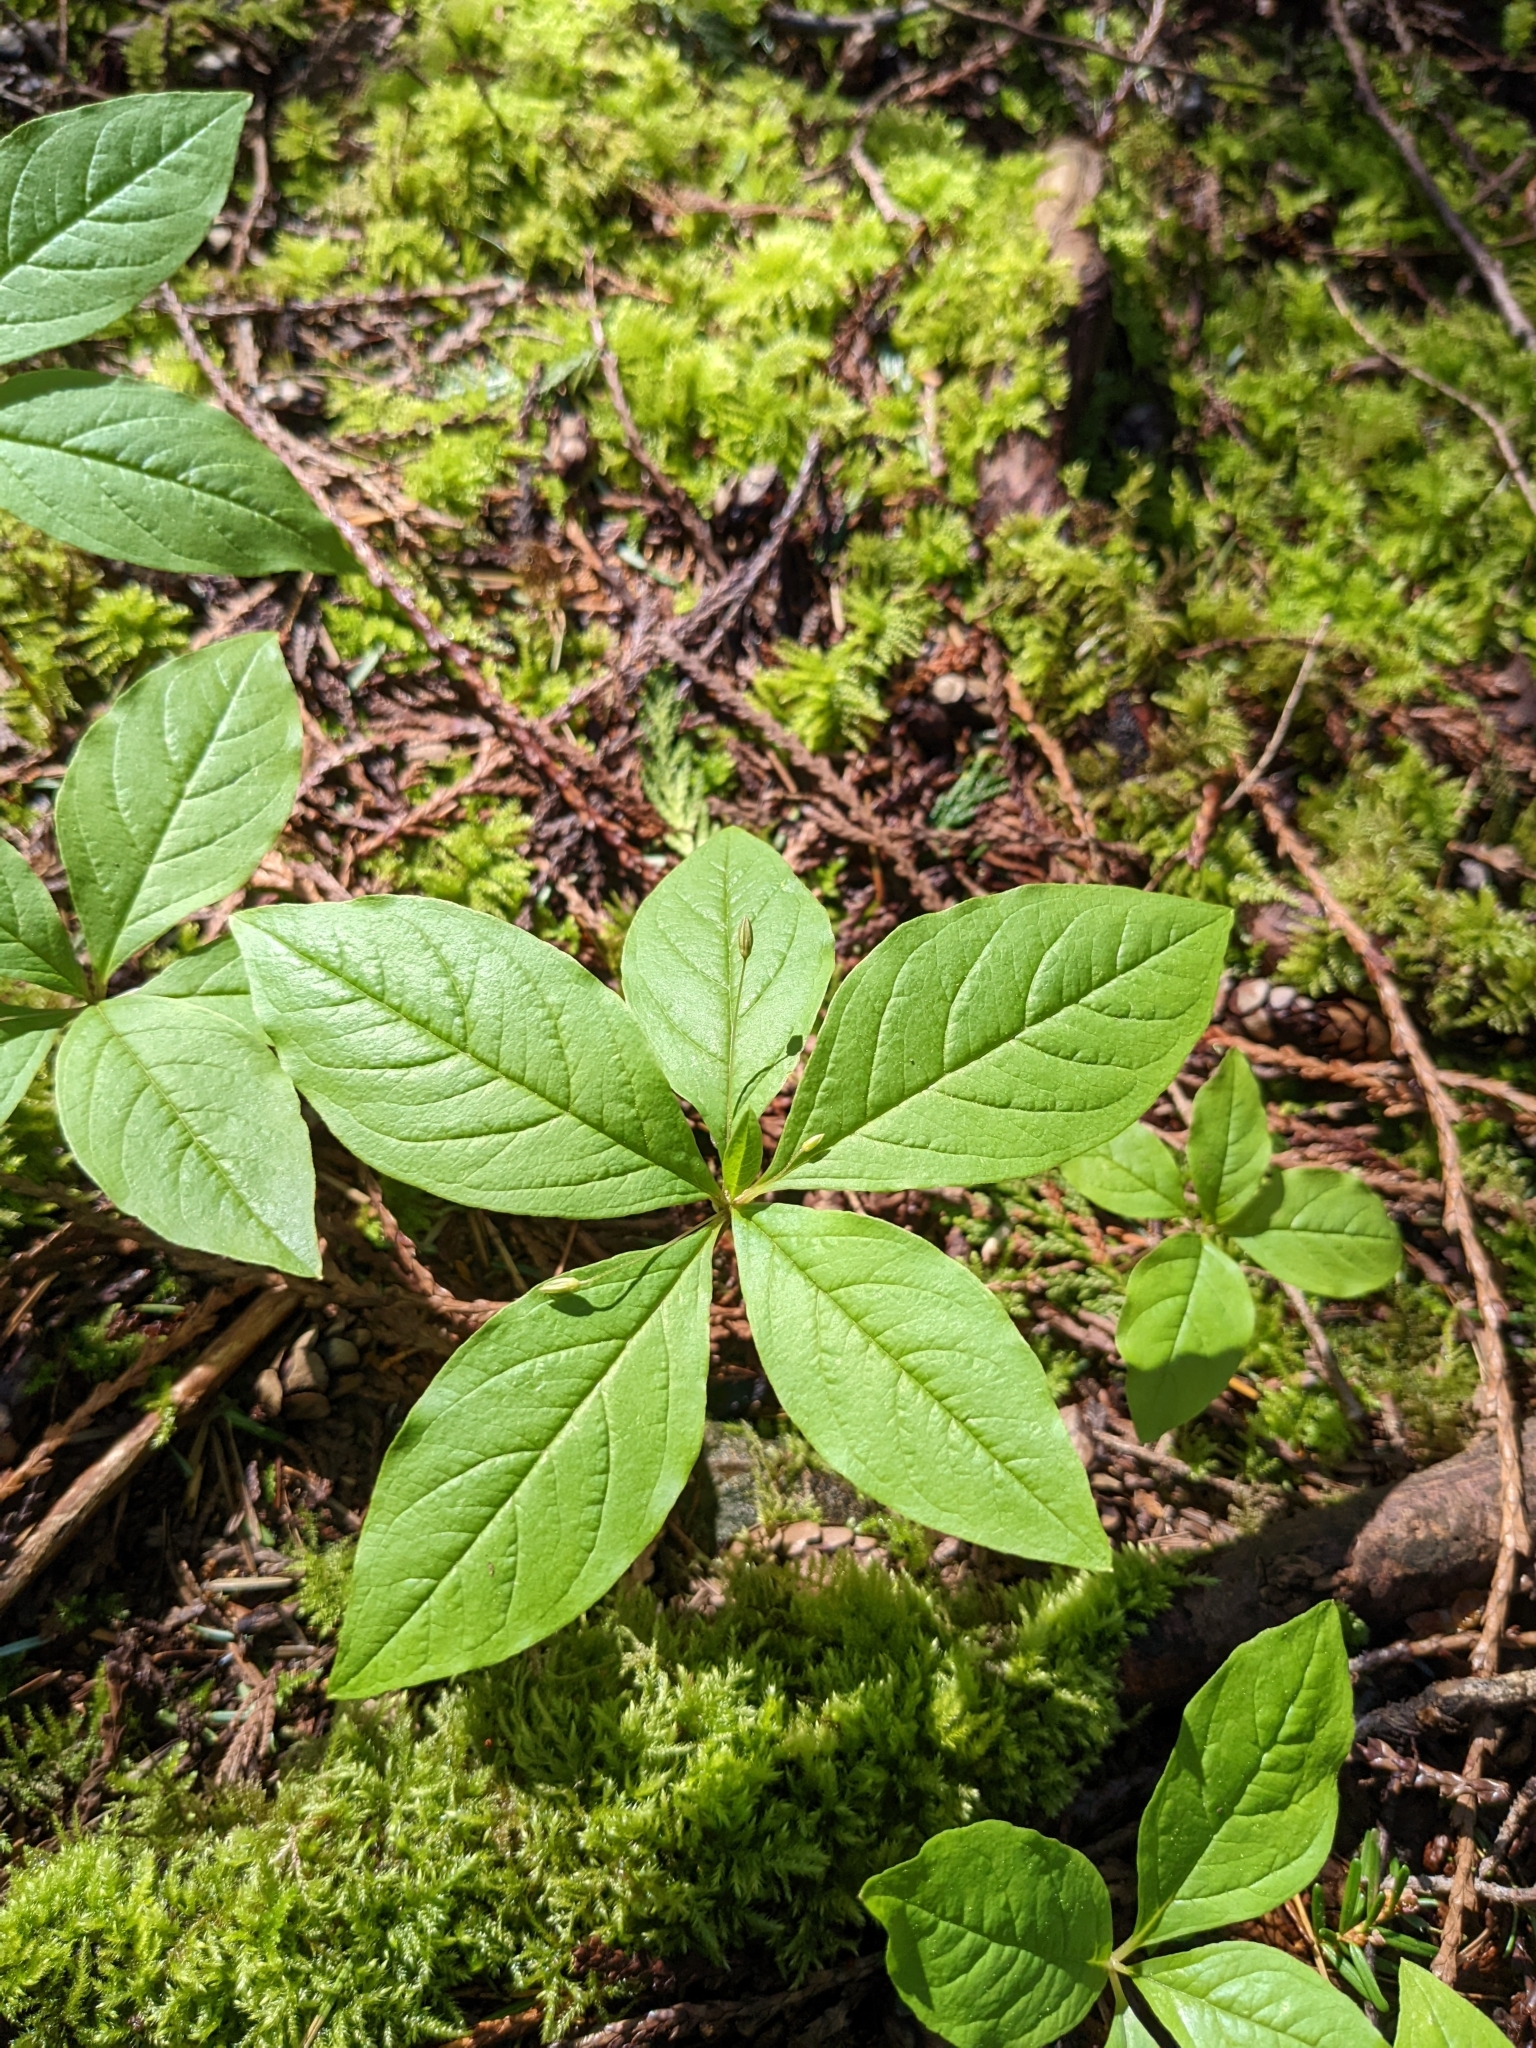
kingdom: Plantae
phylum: Tracheophyta
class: Magnoliopsida
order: Ericales
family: Primulaceae
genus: Lysimachia
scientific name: Lysimachia latifolia
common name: Pacific starflower
